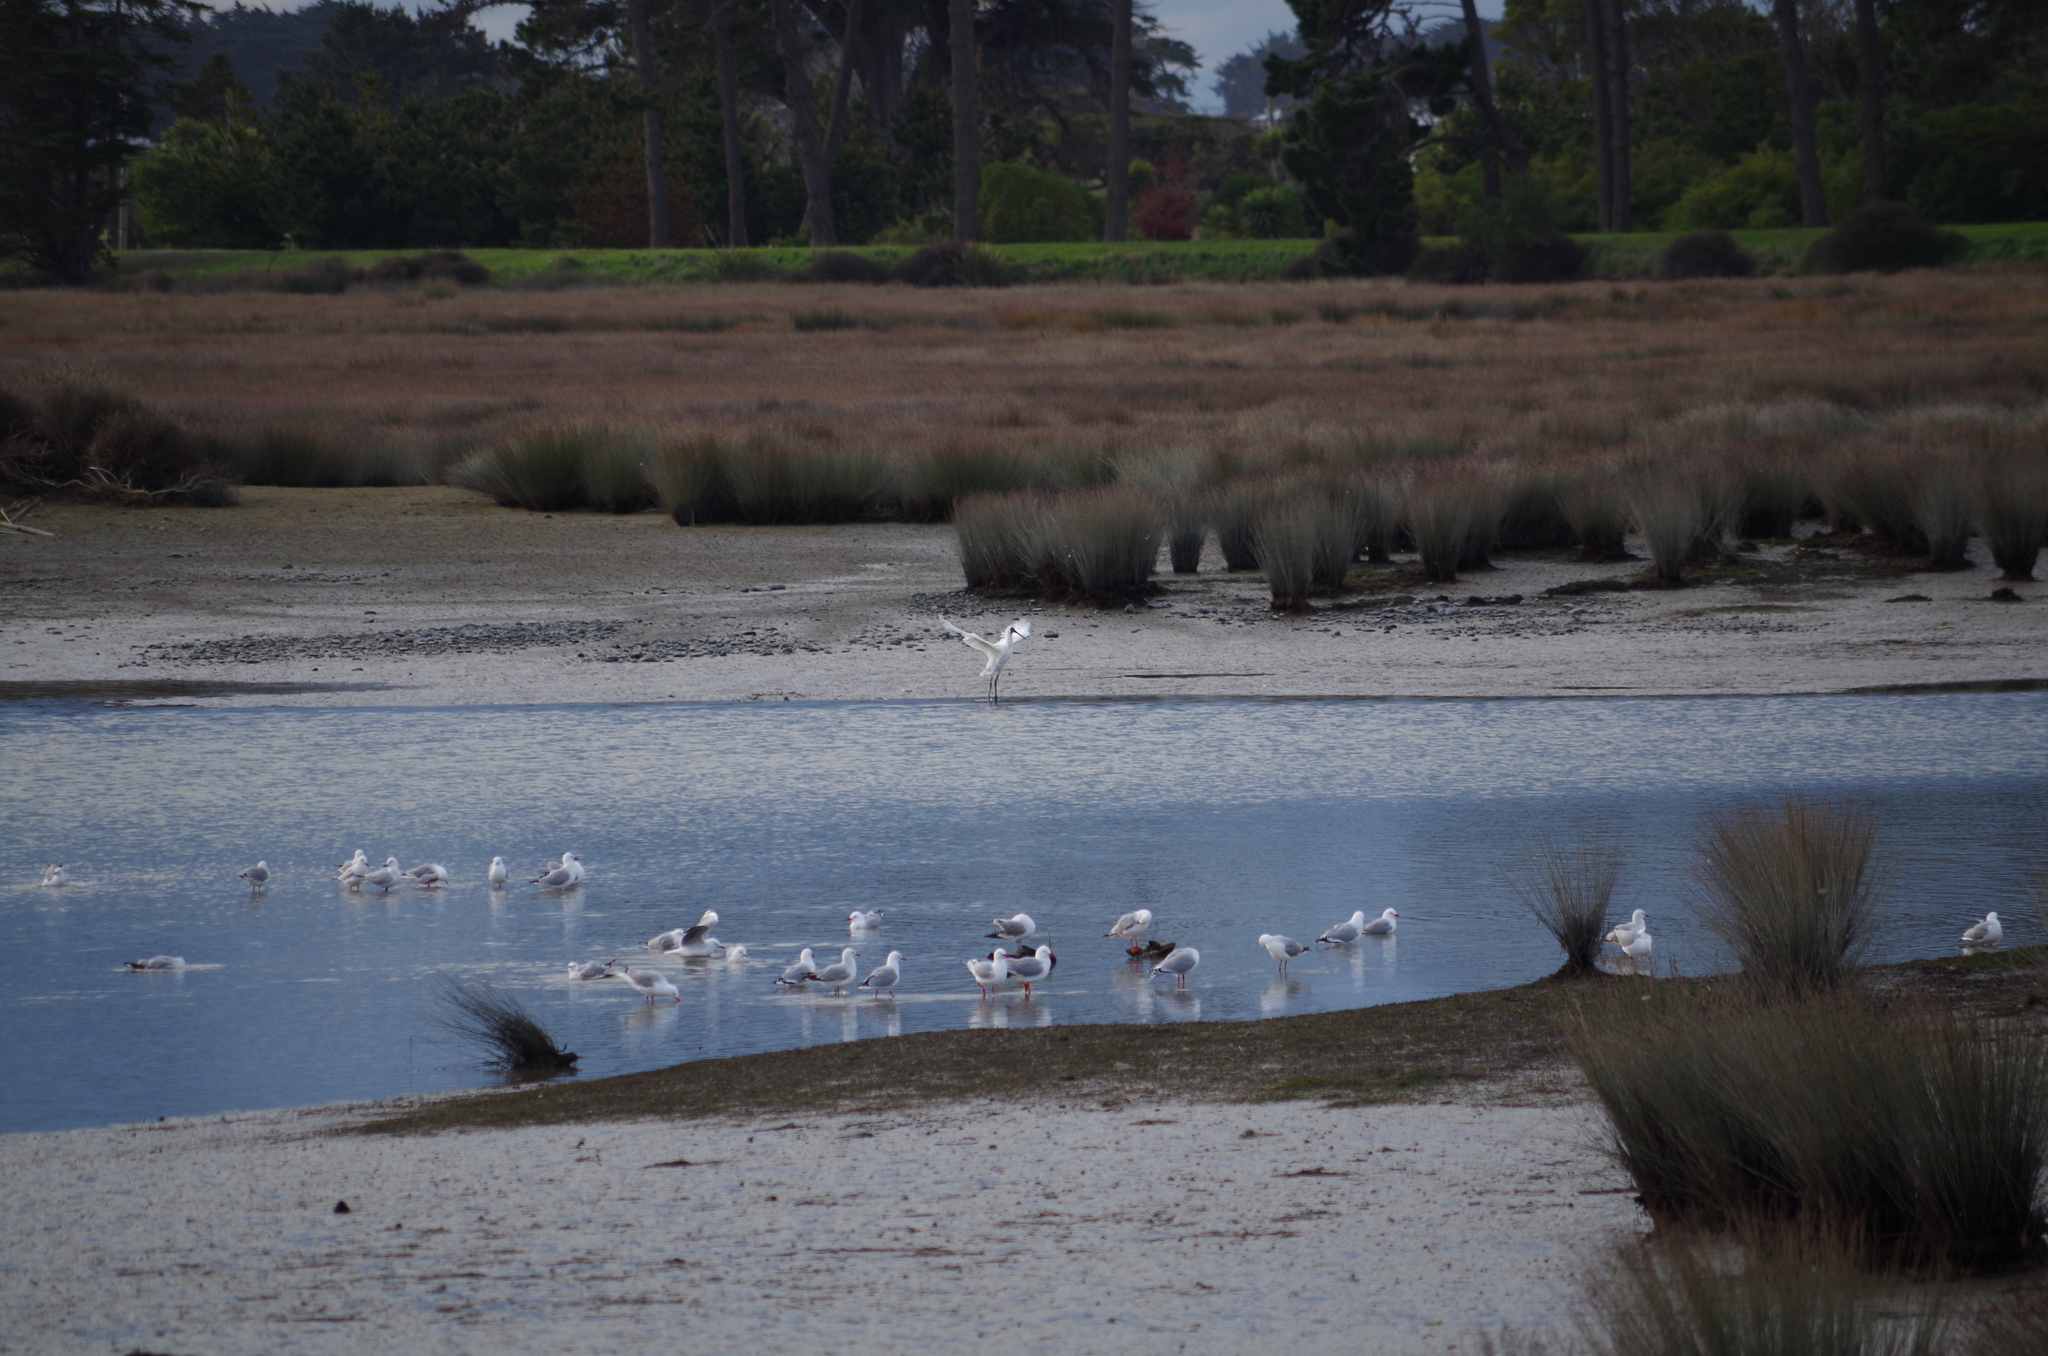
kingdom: Animalia
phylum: Chordata
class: Aves
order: Pelecaniformes
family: Threskiornithidae
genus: Platalea
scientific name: Platalea regia
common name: Royal spoonbill
